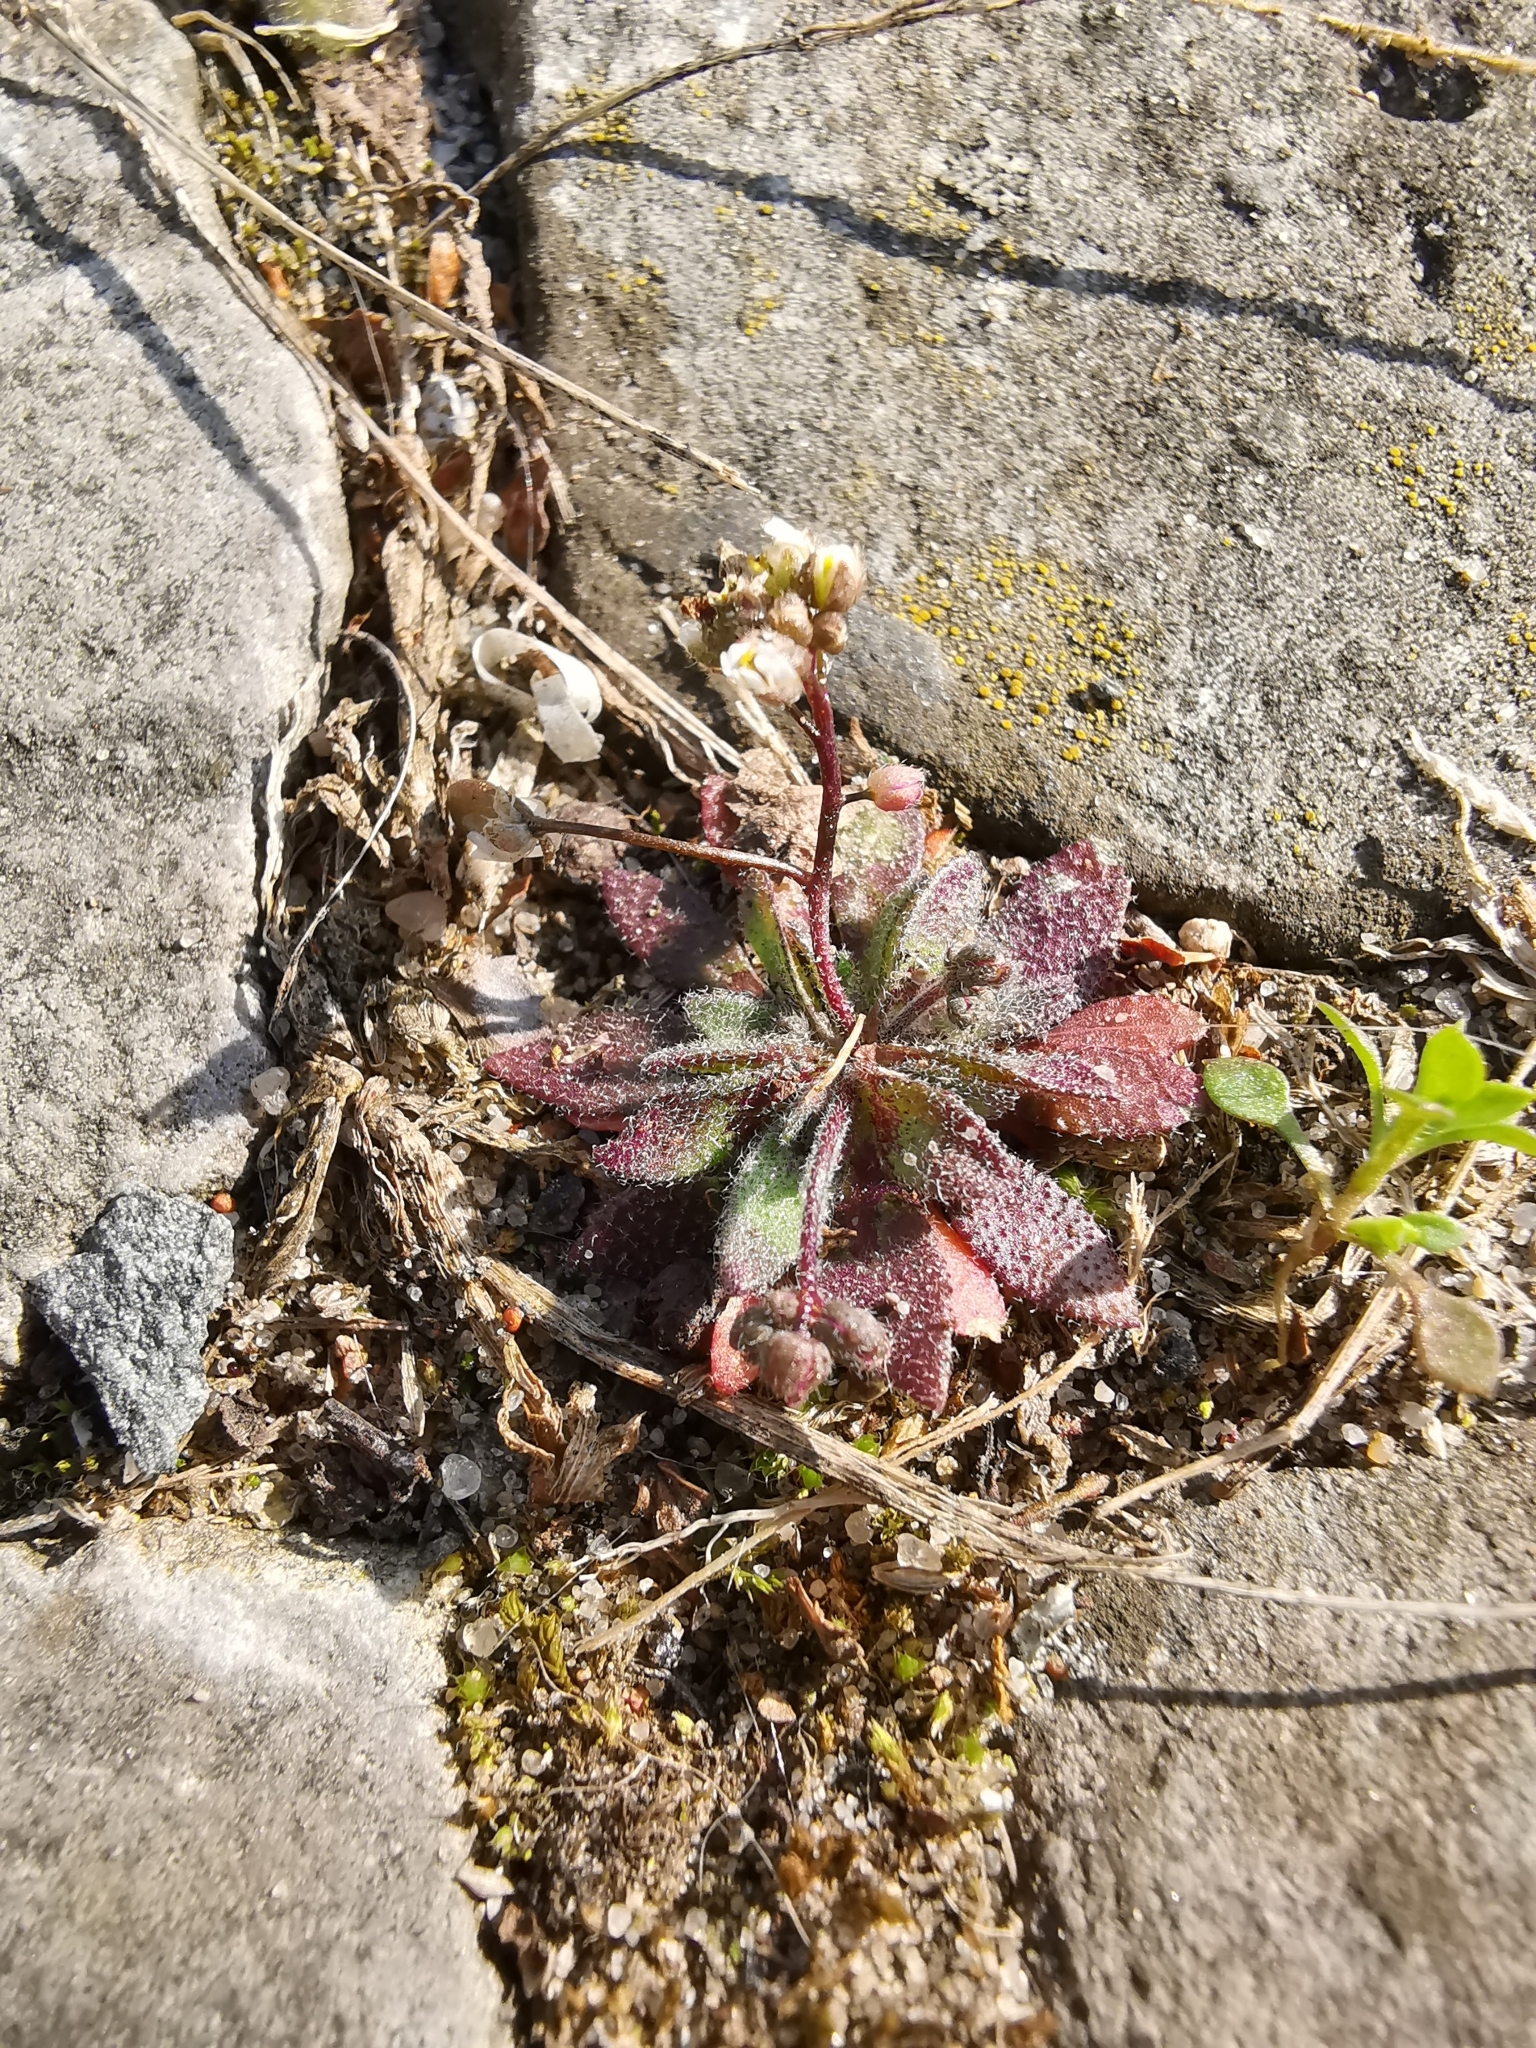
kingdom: Plantae
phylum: Tracheophyta
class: Magnoliopsida
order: Brassicales
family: Brassicaceae
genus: Draba
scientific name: Draba verna
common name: Spring draba
